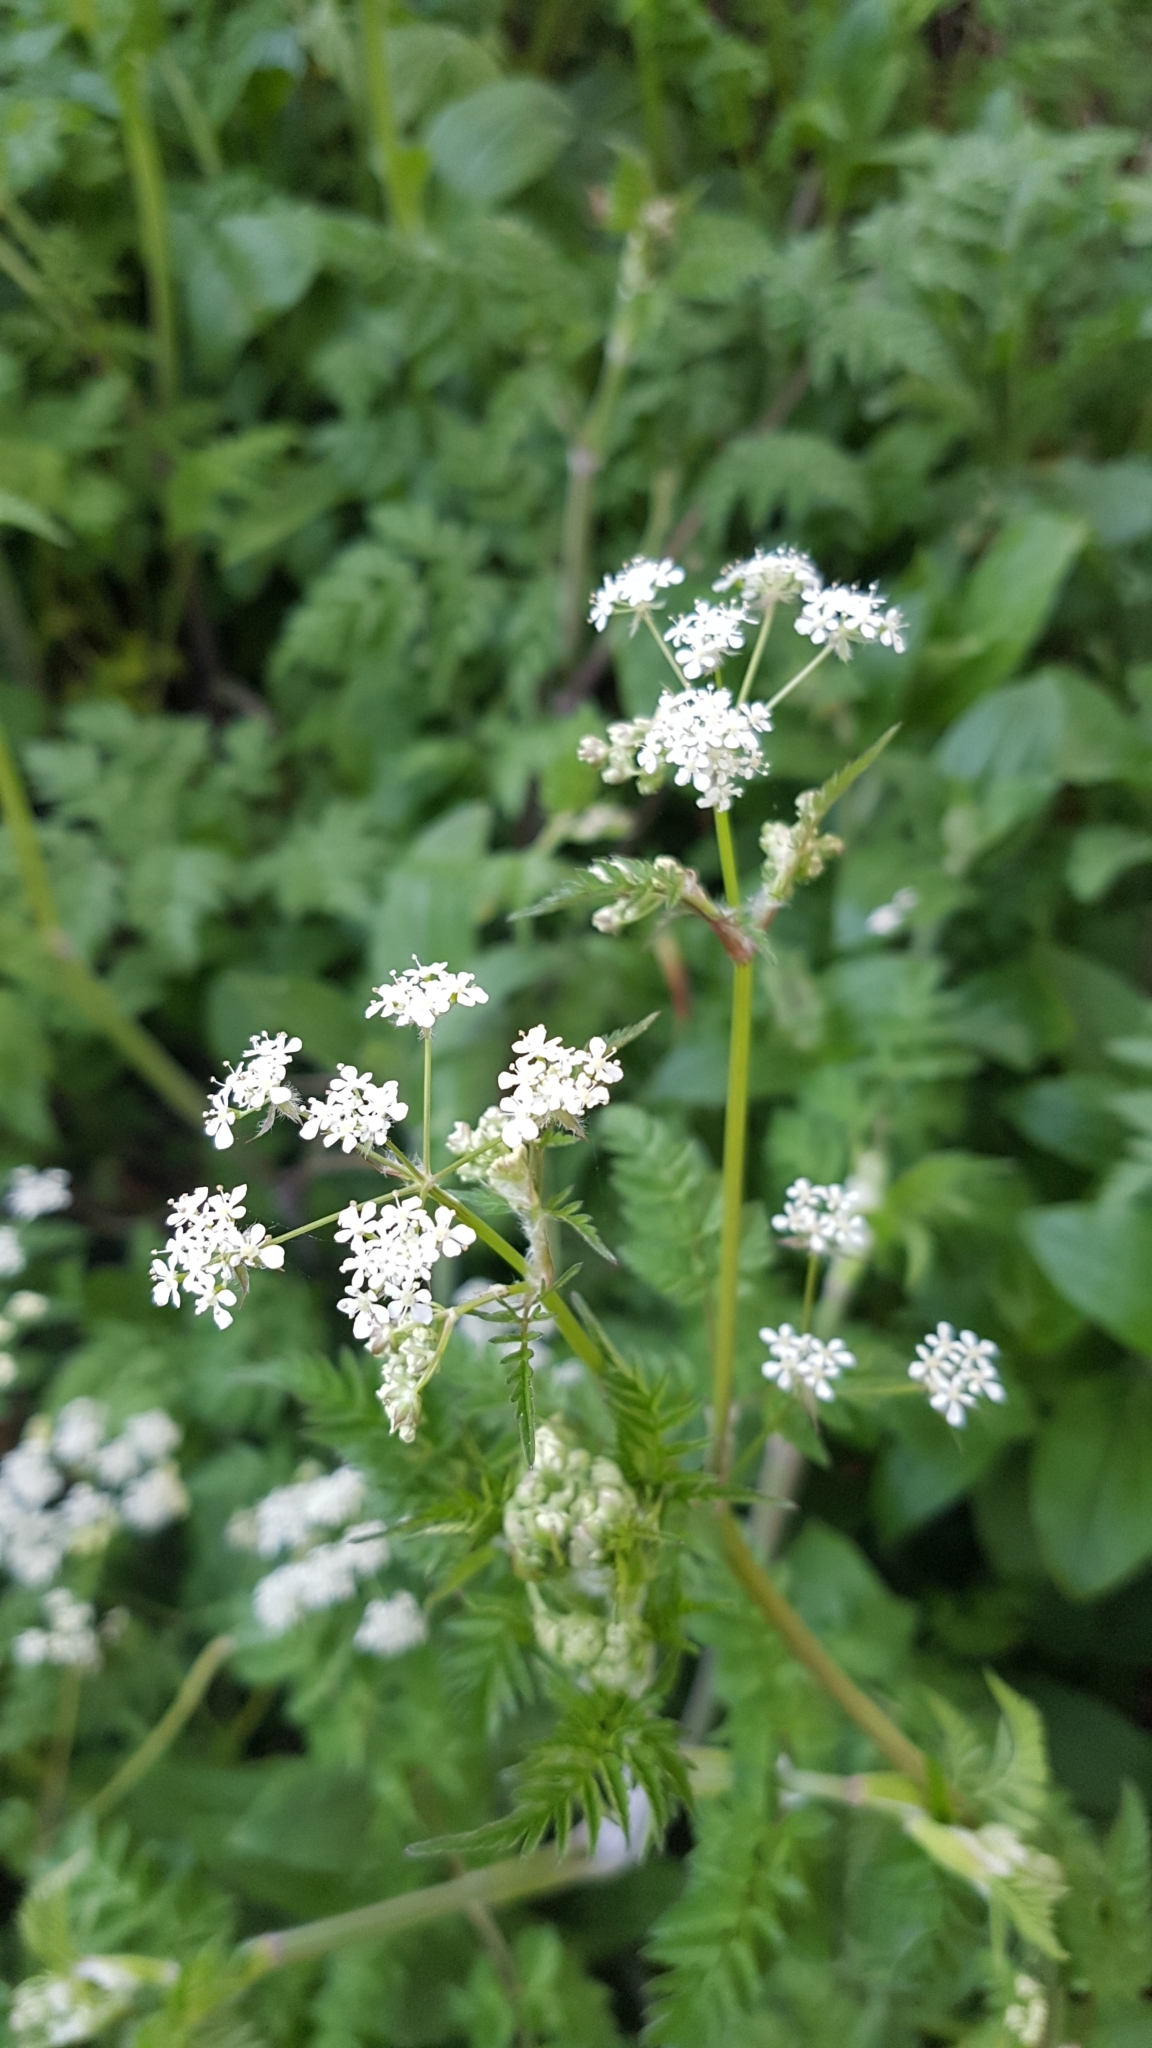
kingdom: Plantae
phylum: Tracheophyta
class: Magnoliopsida
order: Apiales
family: Apiaceae
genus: Anthriscus
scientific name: Anthriscus sylvestris
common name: Cow parsley
